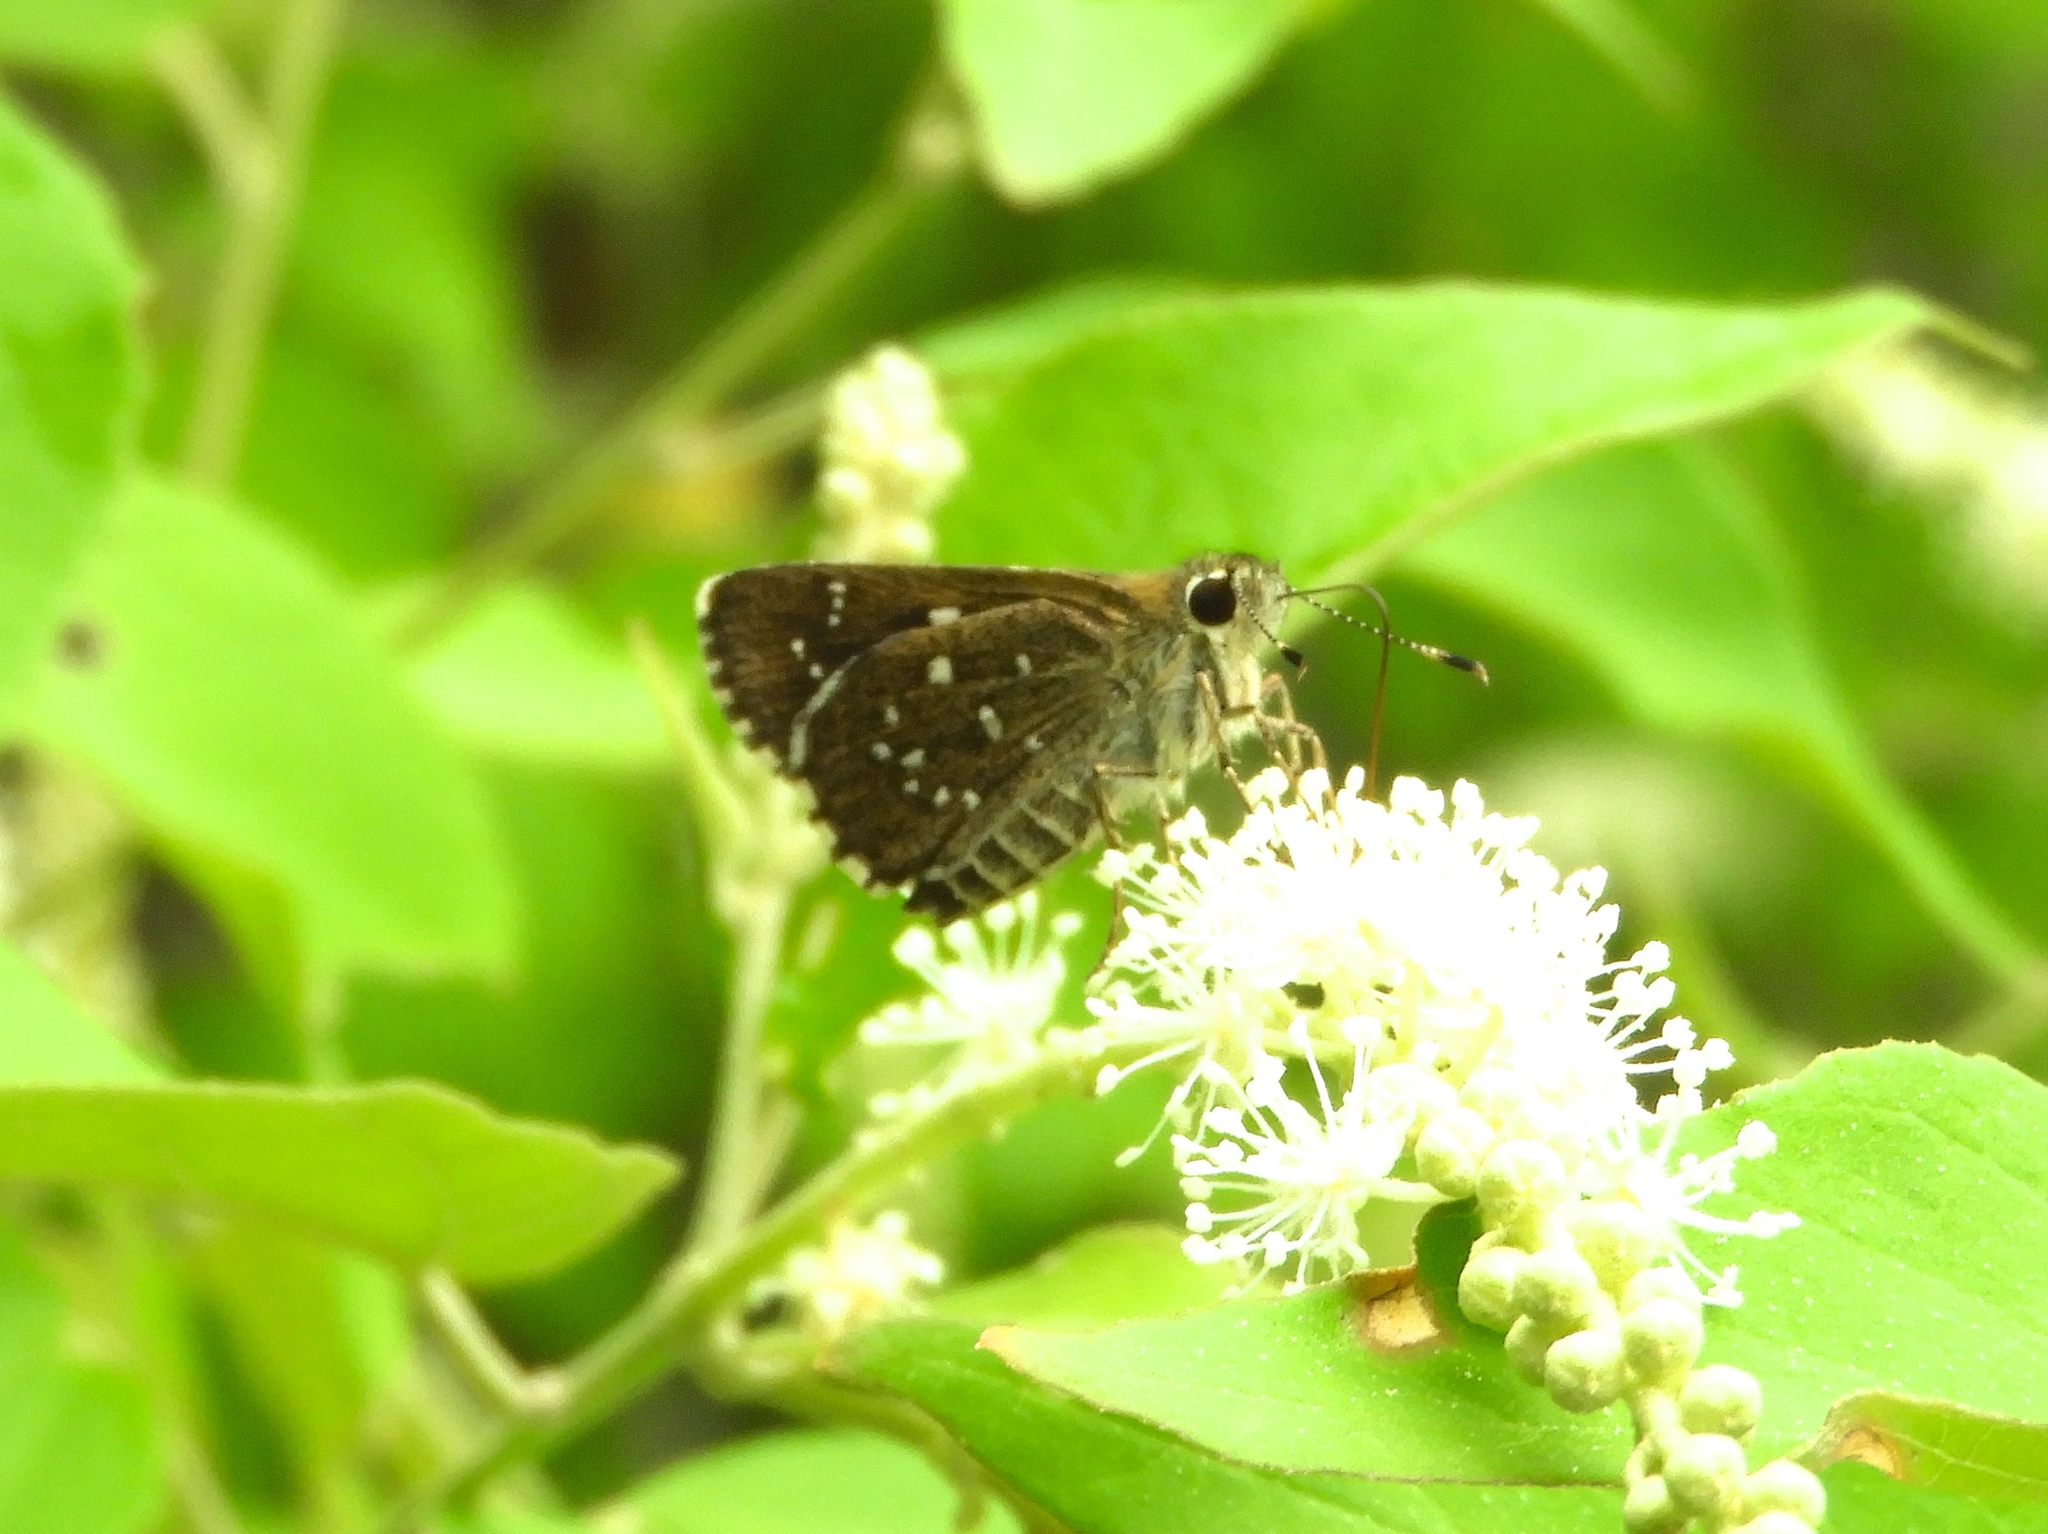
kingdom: Animalia
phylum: Arthropoda
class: Insecta
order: Lepidoptera
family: Hesperiidae
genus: Mastor
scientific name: Mastor tolteca
